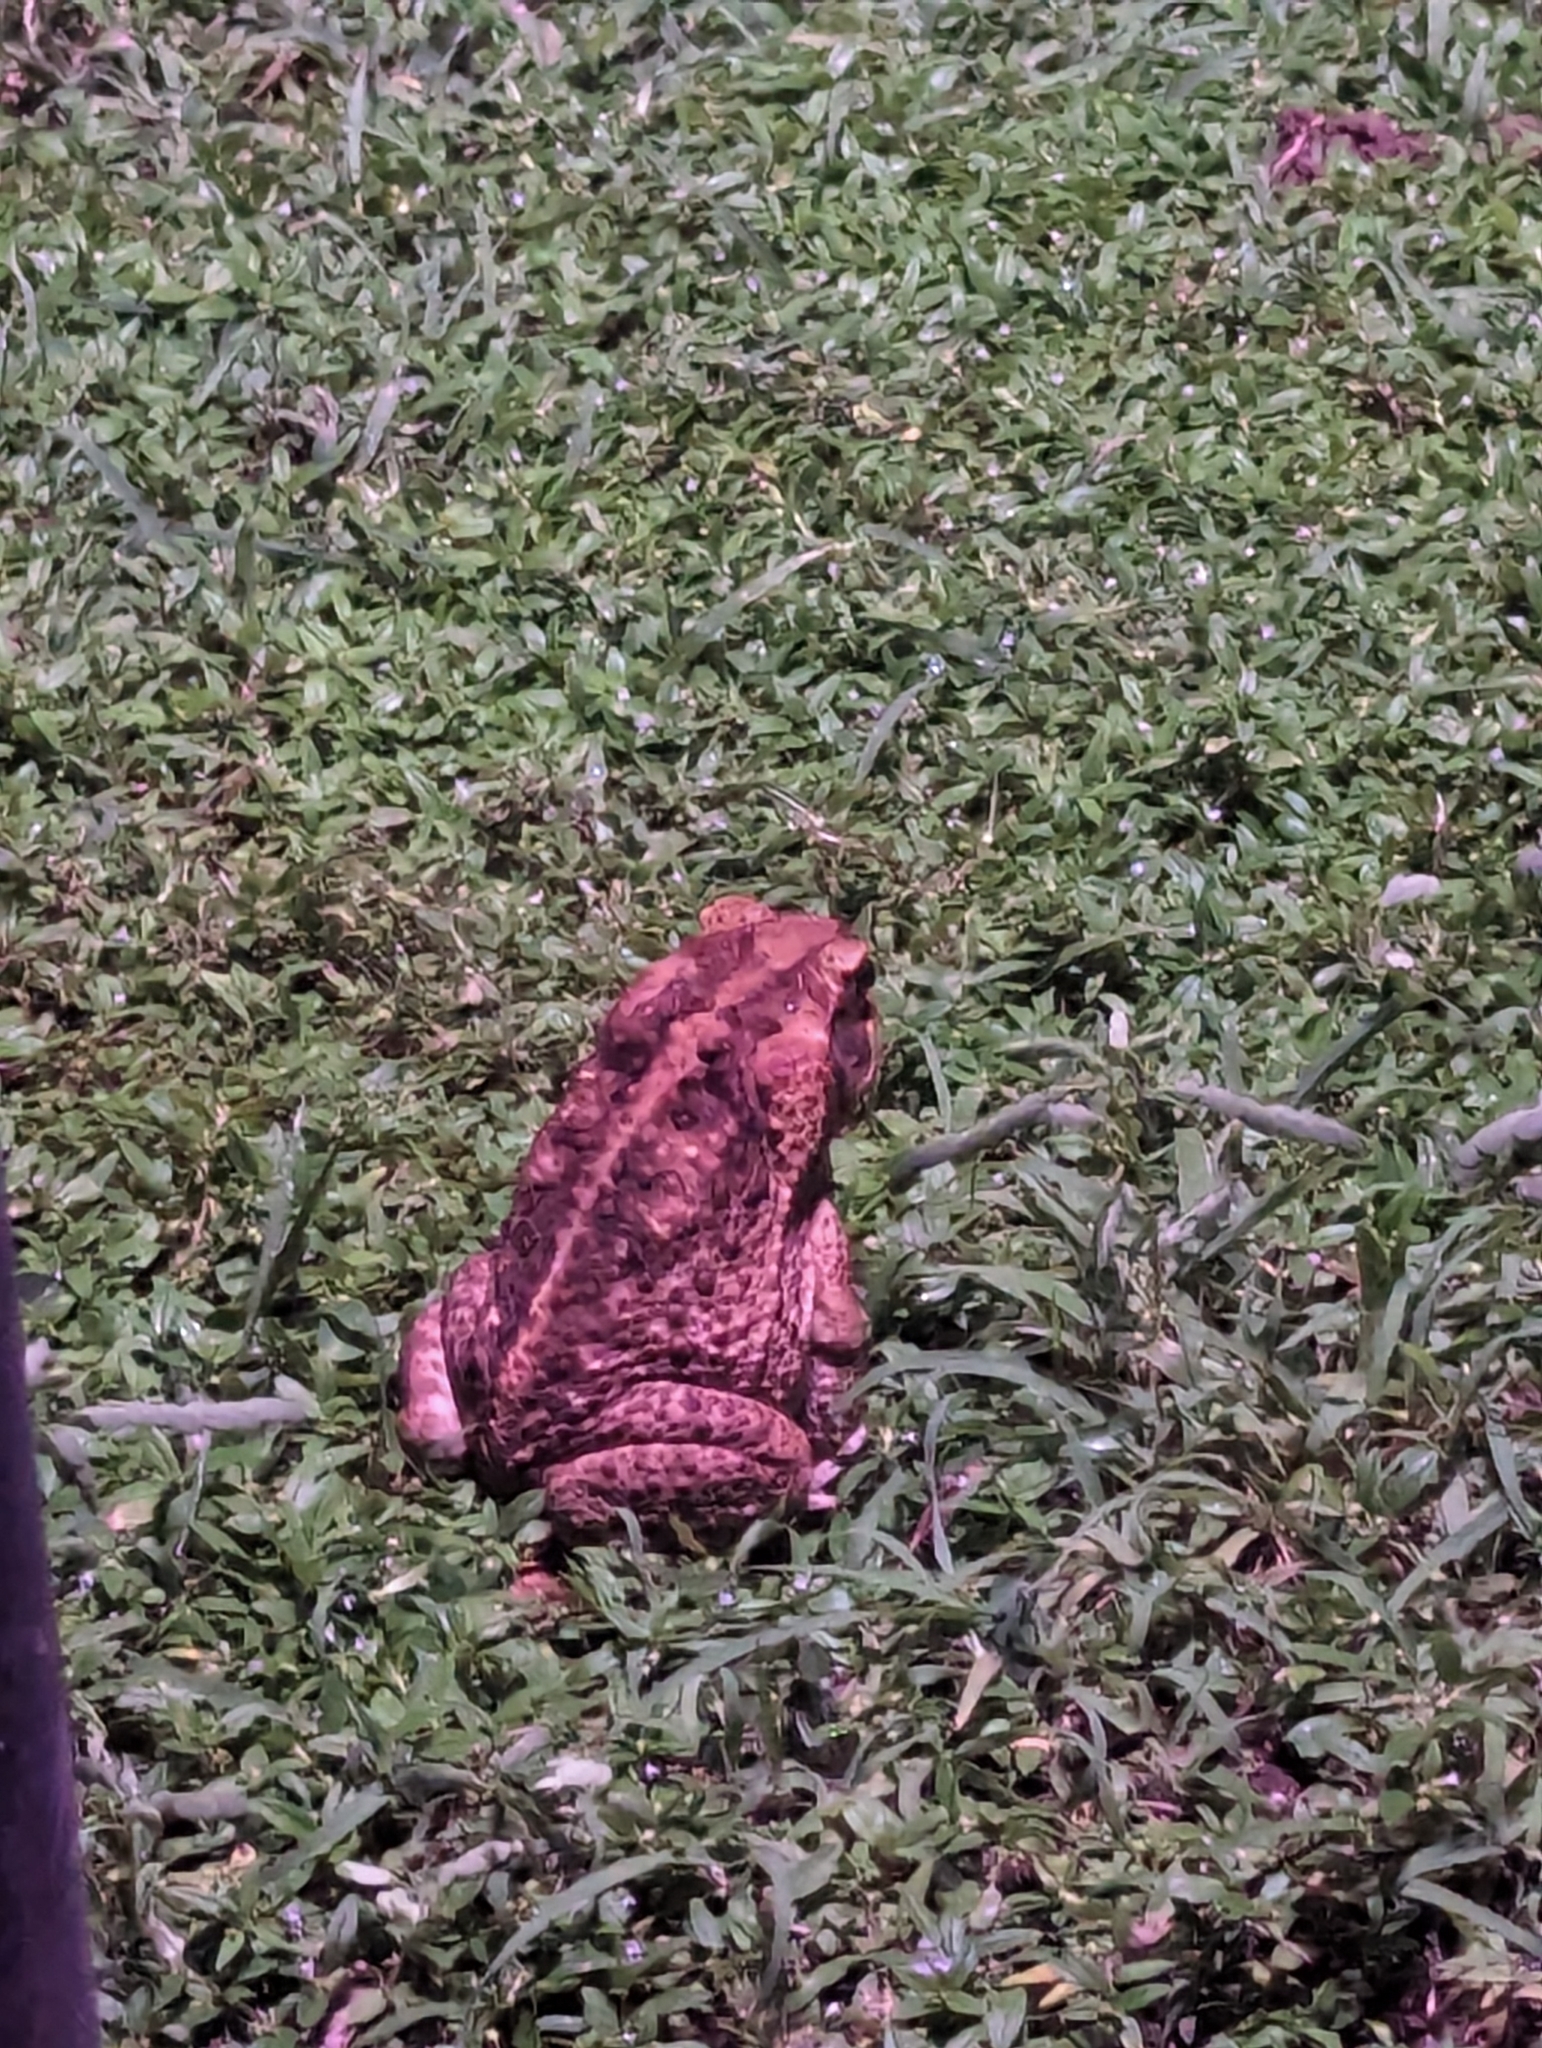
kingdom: Animalia
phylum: Chordata
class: Amphibia
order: Anura
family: Bufonidae
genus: Rhinella
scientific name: Rhinella marina
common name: Cane toad
